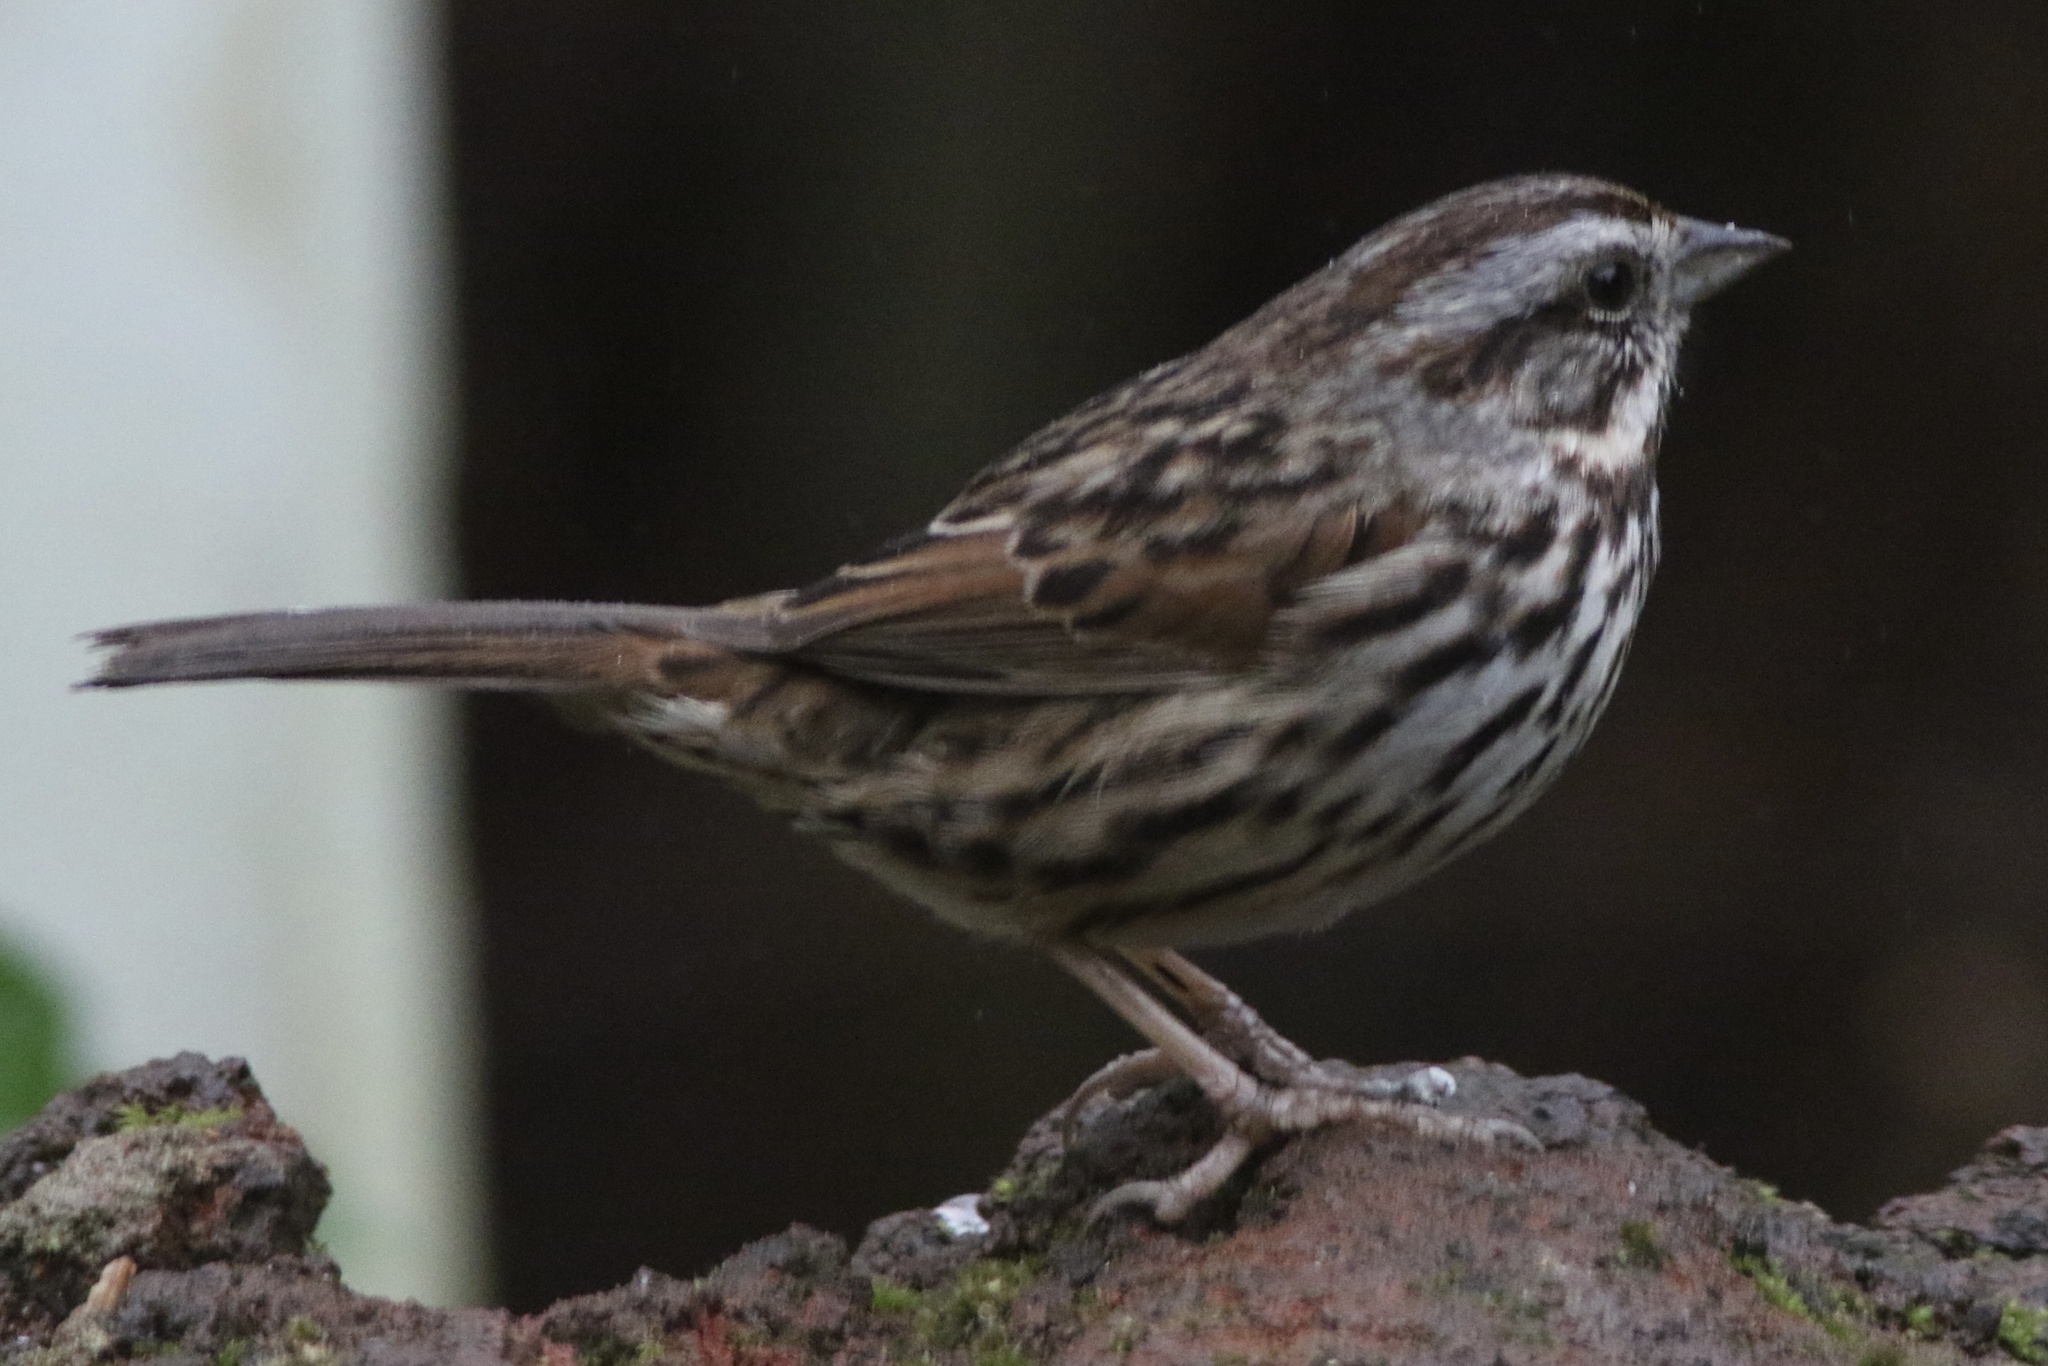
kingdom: Animalia
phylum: Chordata
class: Aves
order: Passeriformes
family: Passerellidae
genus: Melospiza
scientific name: Melospiza melodia
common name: Song sparrow
